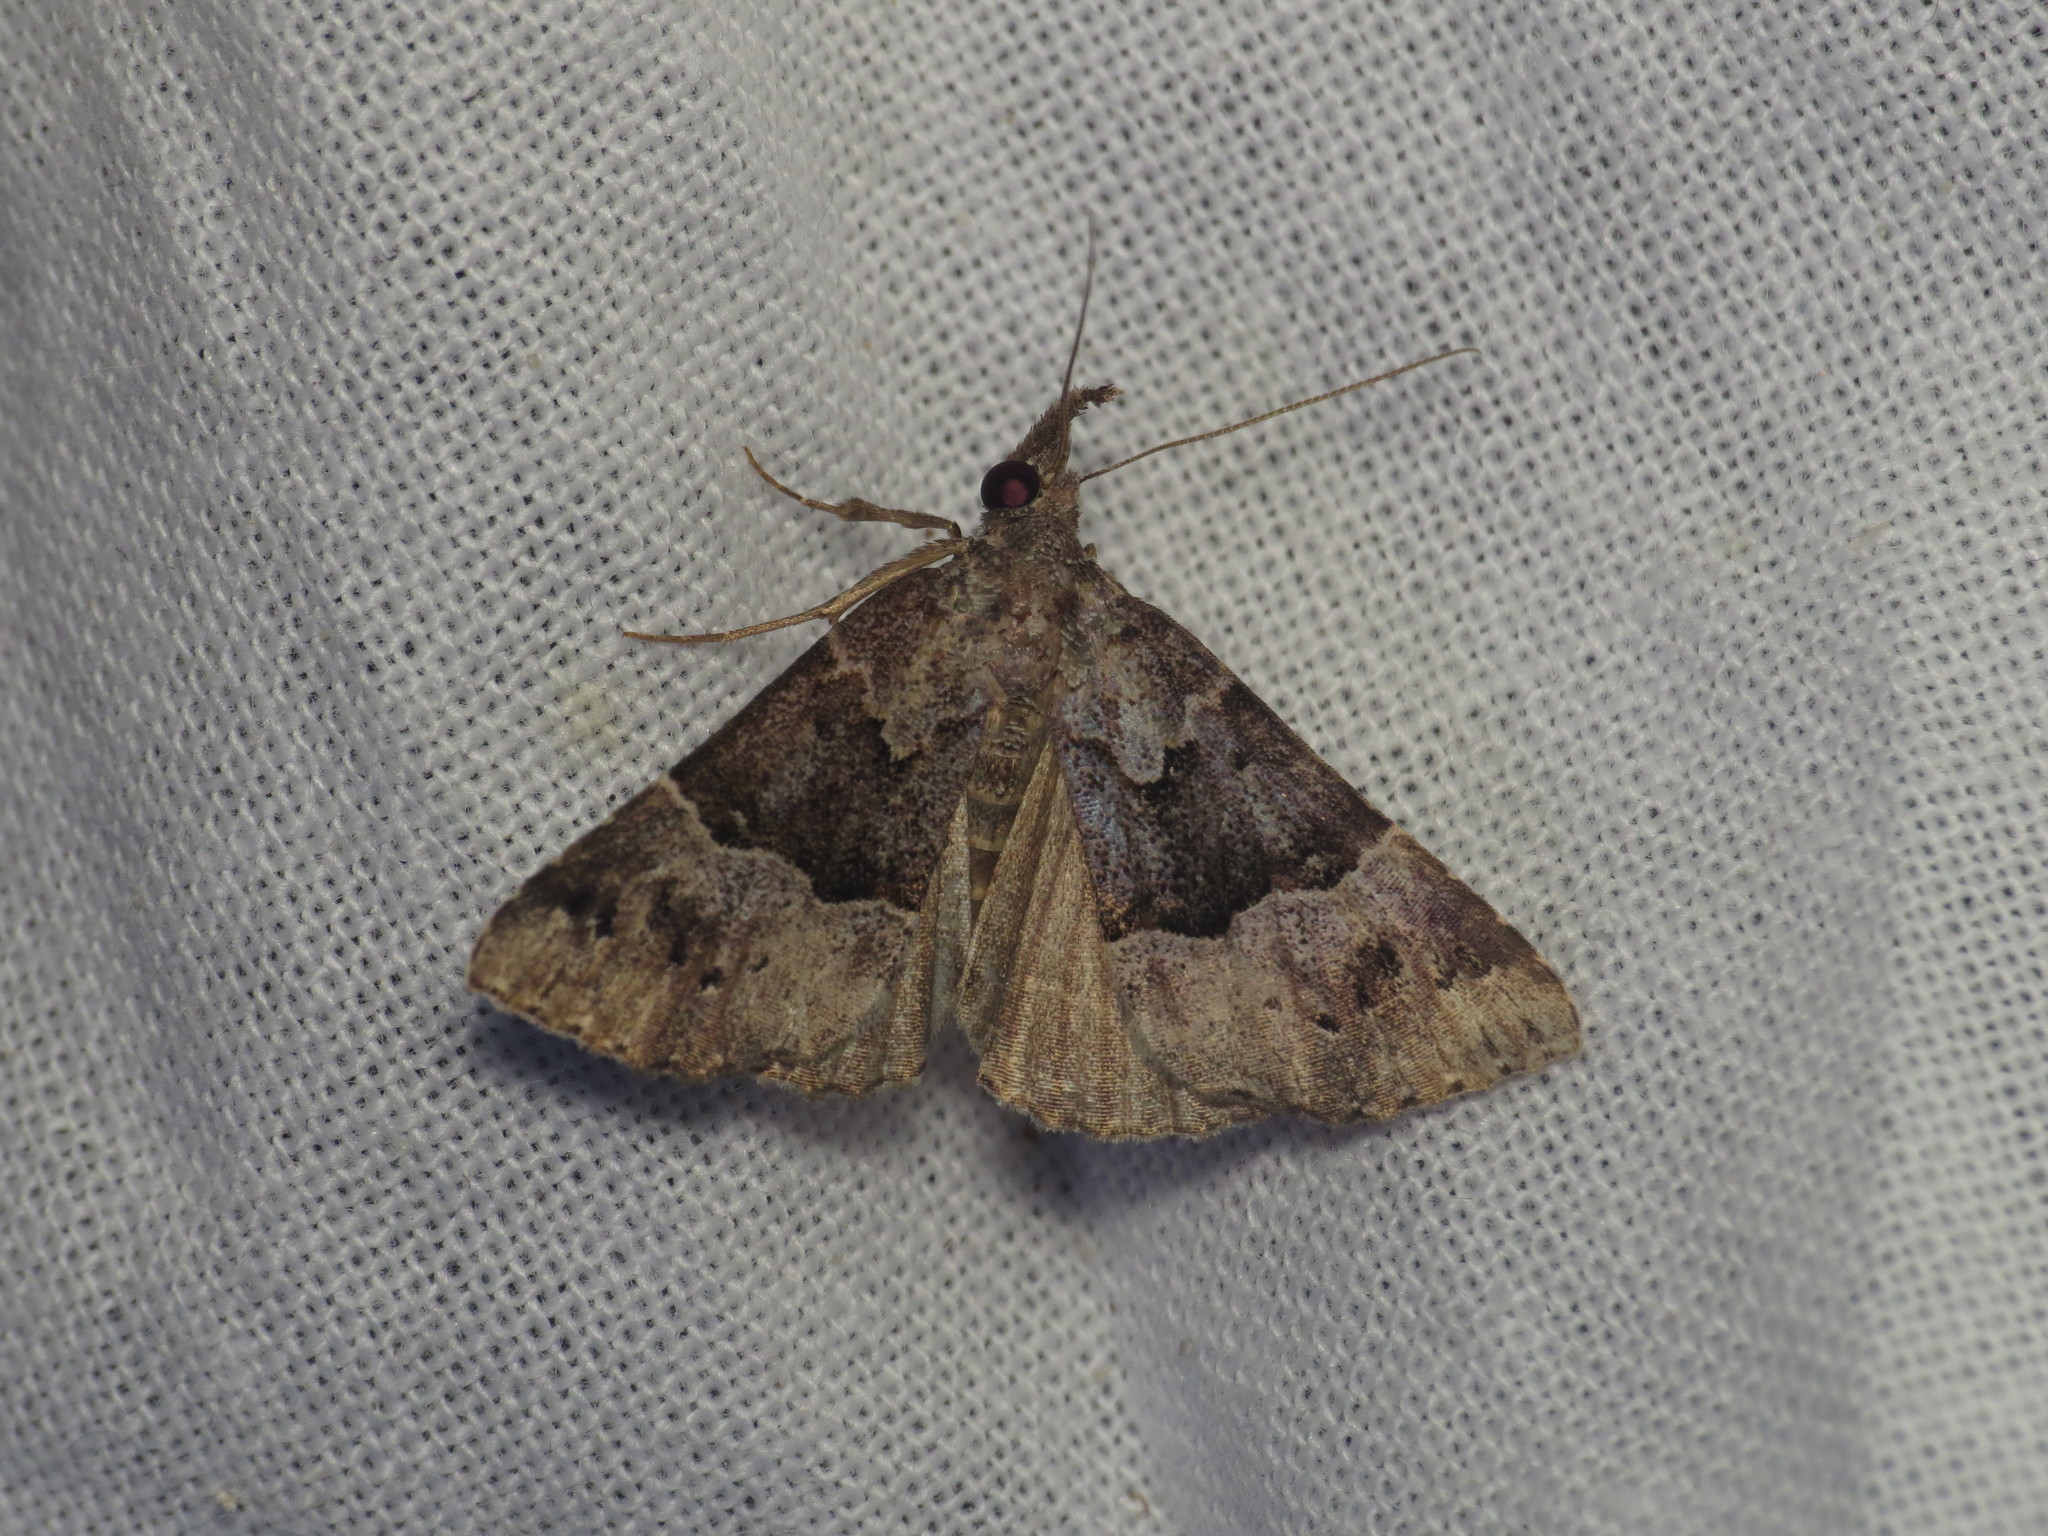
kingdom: Animalia
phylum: Arthropoda
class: Insecta
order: Lepidoptera
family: Erebidae
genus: Hypena
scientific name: Hypena euryzostra
